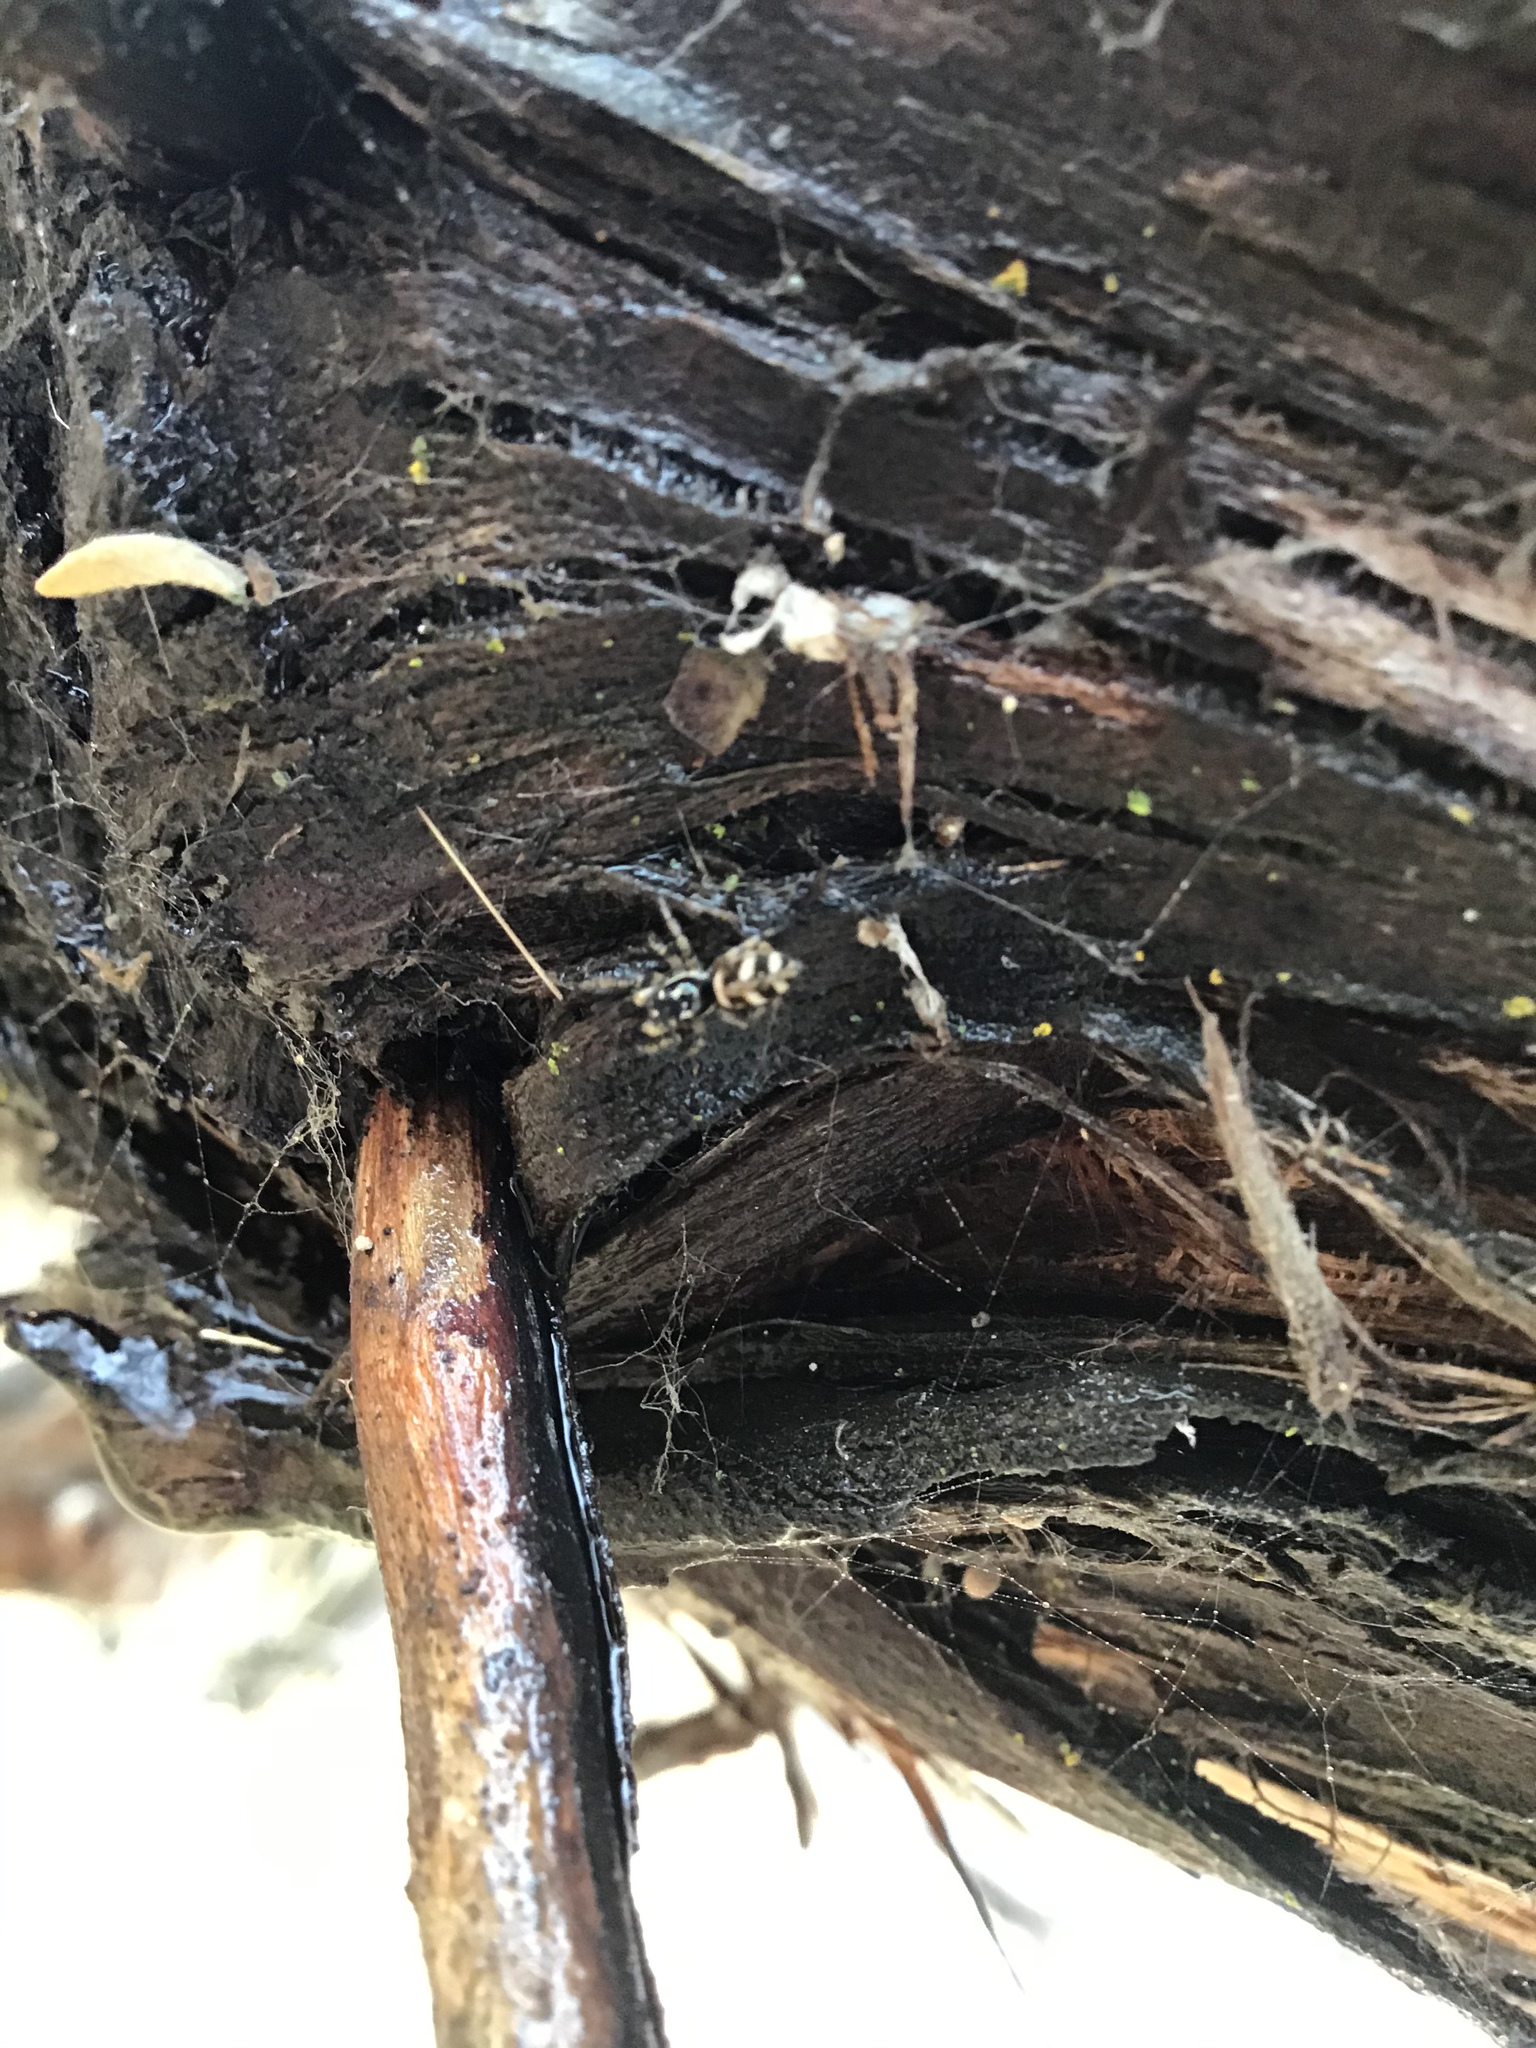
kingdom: Animalia
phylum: Arthropoda
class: Arachnida
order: Araneae
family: Salticidae
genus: Salticus
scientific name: Salticus scenicus
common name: Zebra jumper
